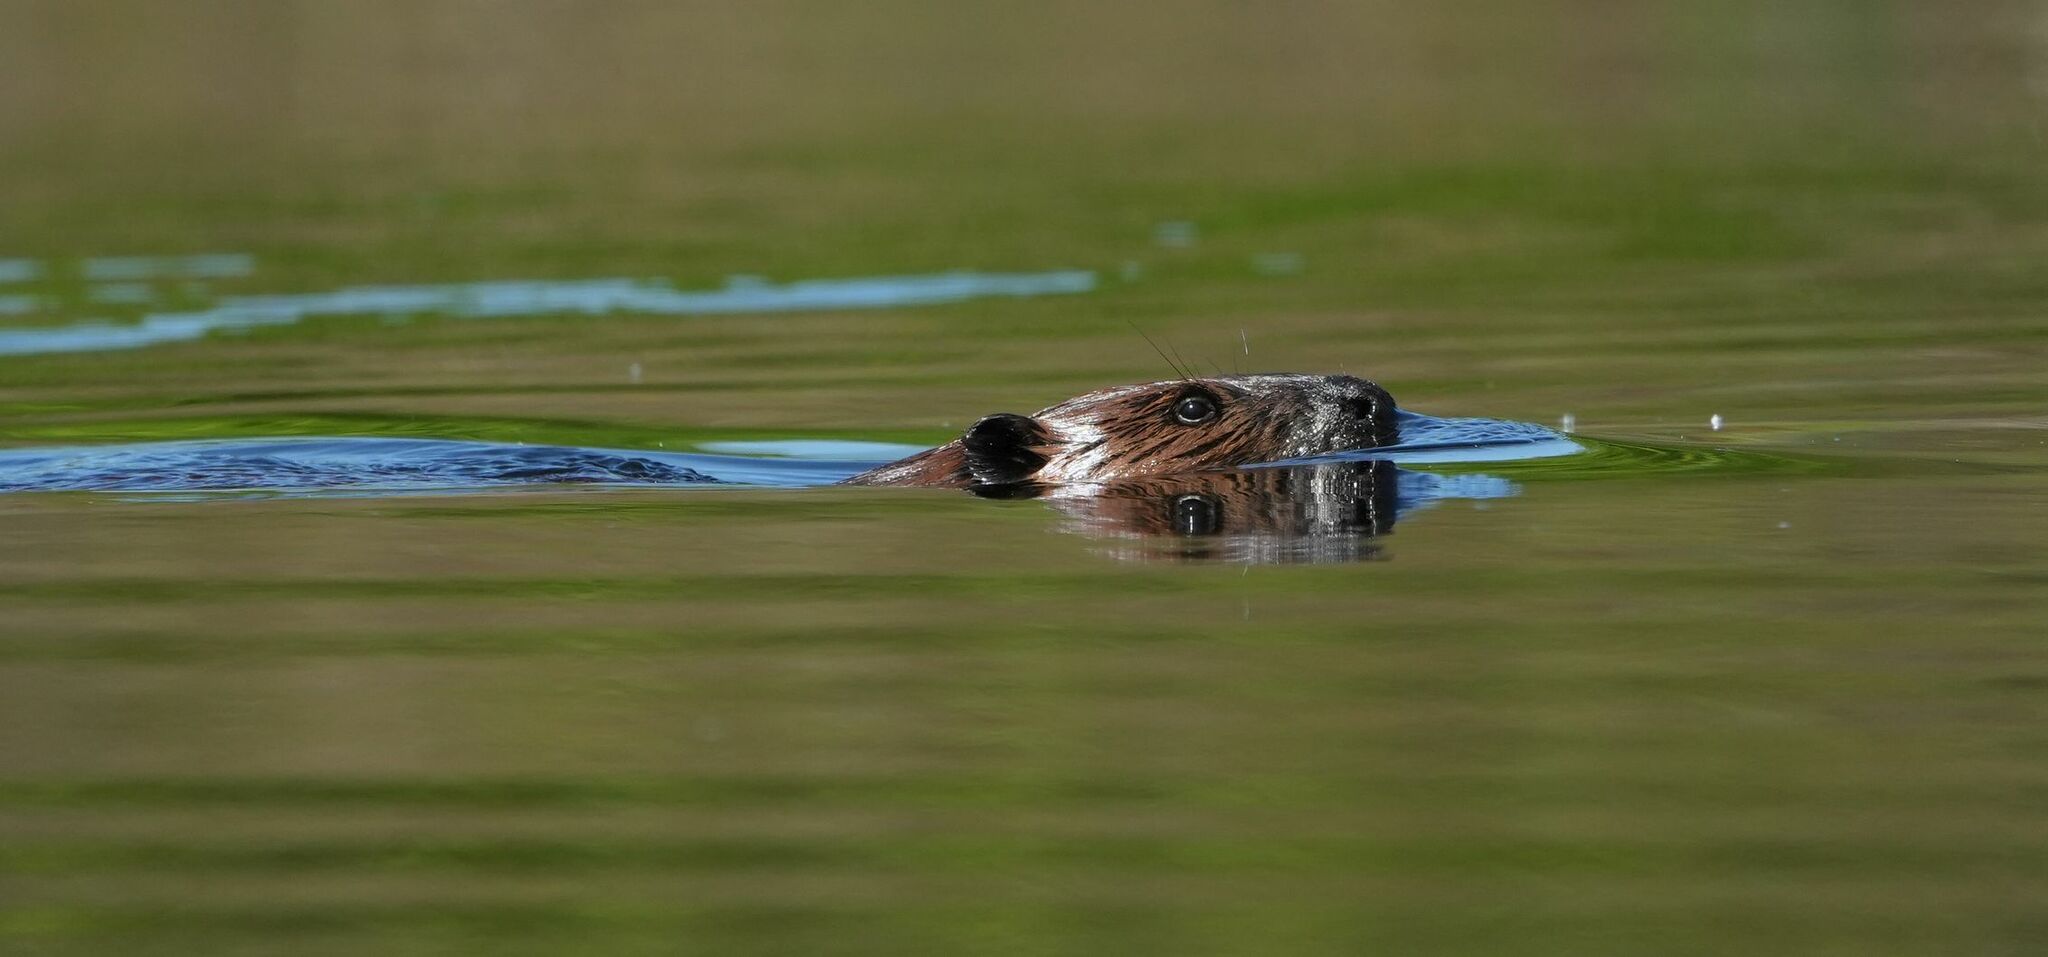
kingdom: Animalia
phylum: Chordata
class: Mammalia
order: Rodentia
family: Castoridae
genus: Castor
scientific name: Castor canadensis
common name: American beaver
